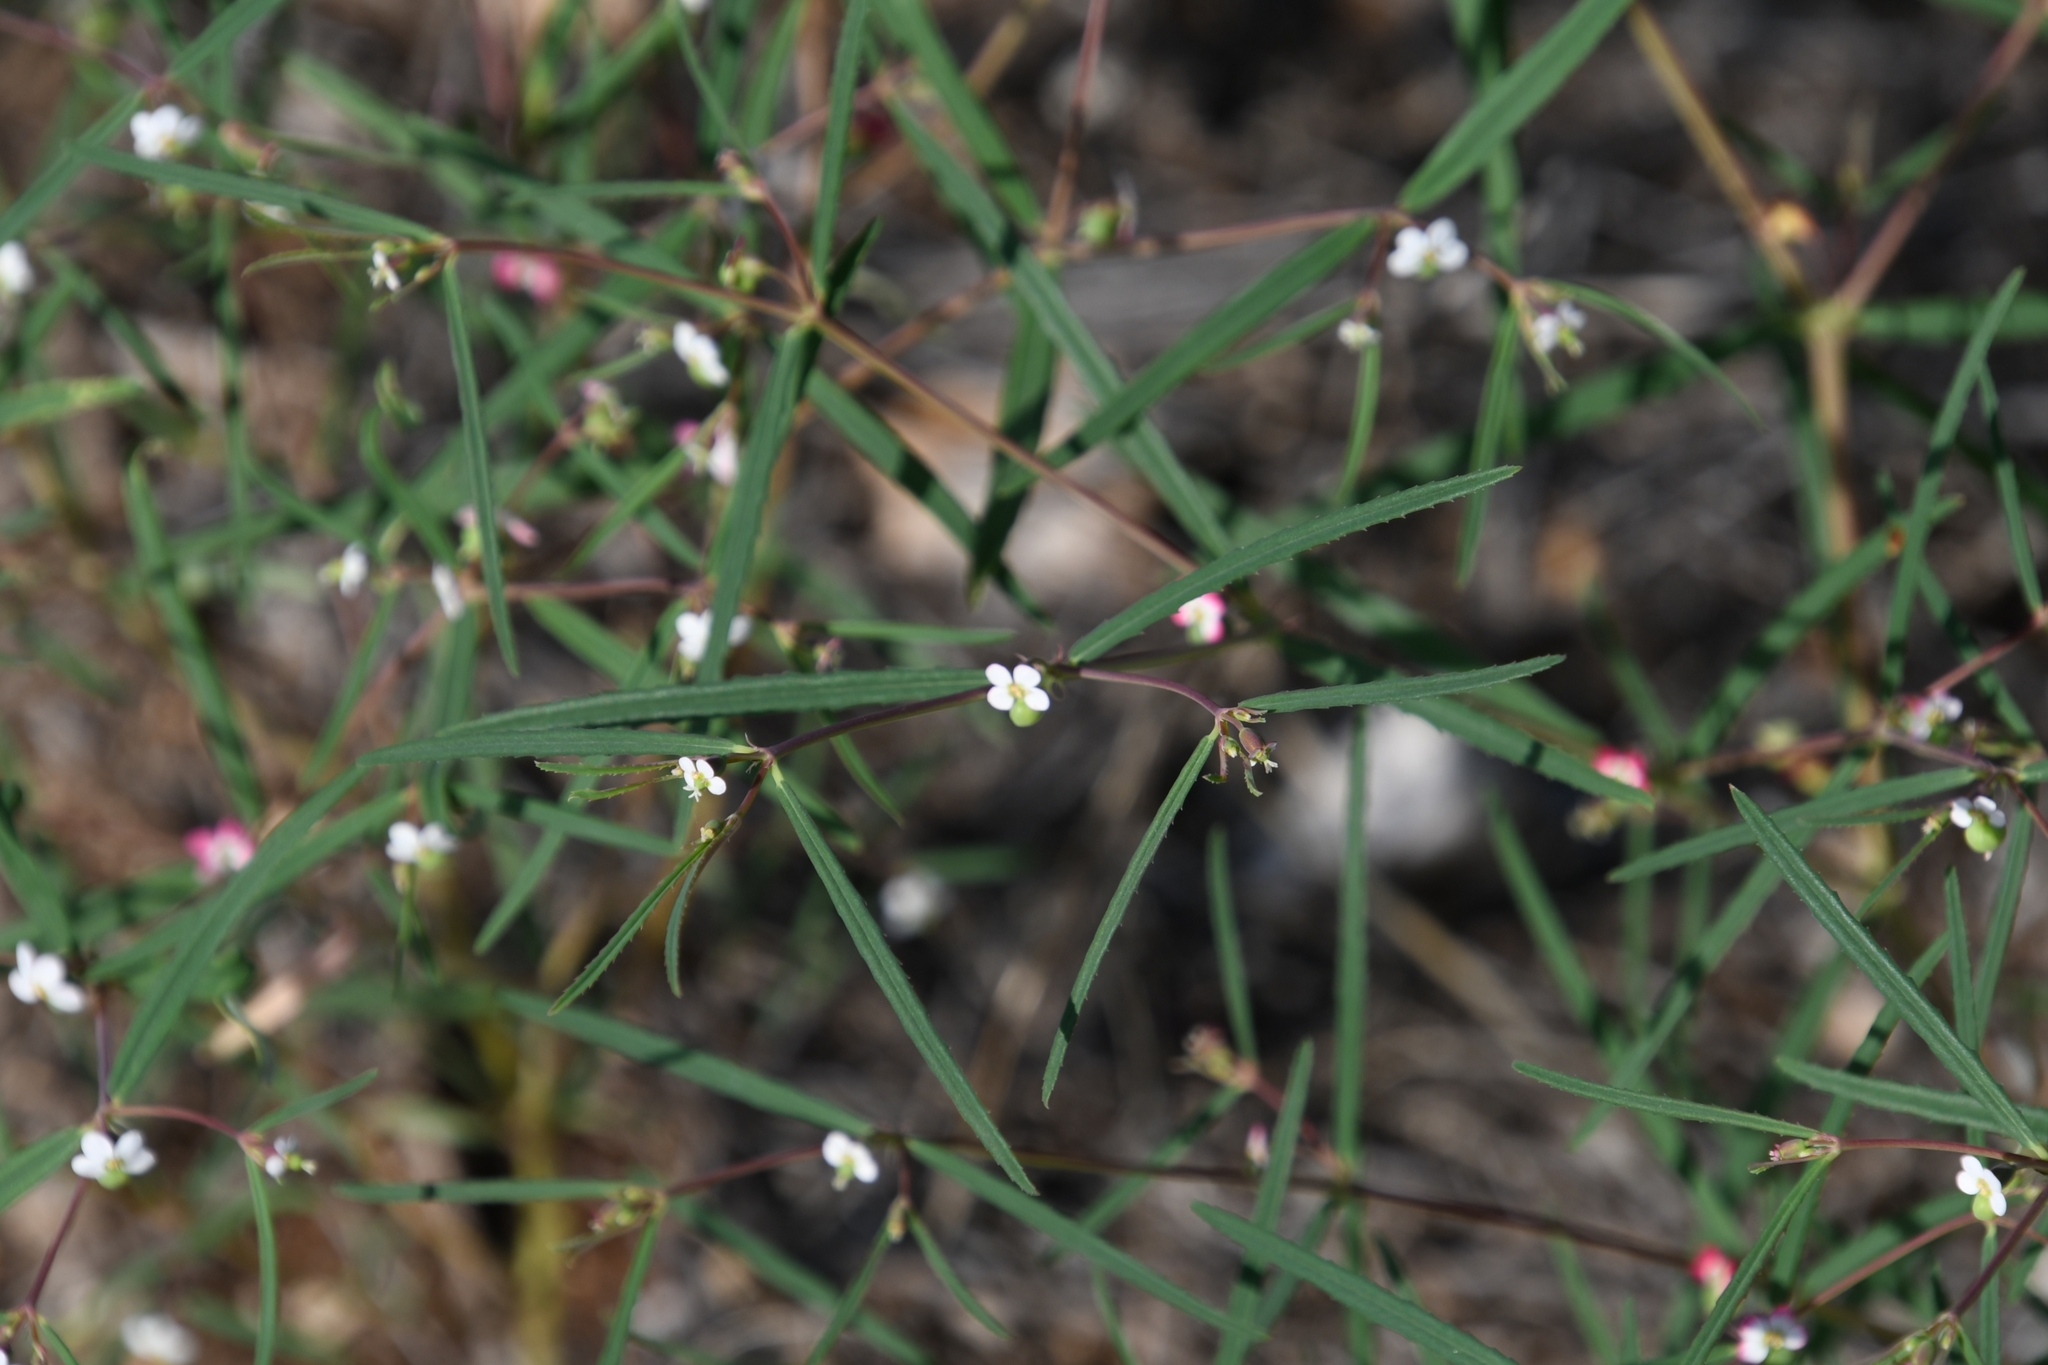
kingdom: Plantae
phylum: Tracheophyta
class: Magnoliopsida
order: Malpighiales
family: Euphorbiaceae
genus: Euphorbia
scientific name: Euphorbia florida
